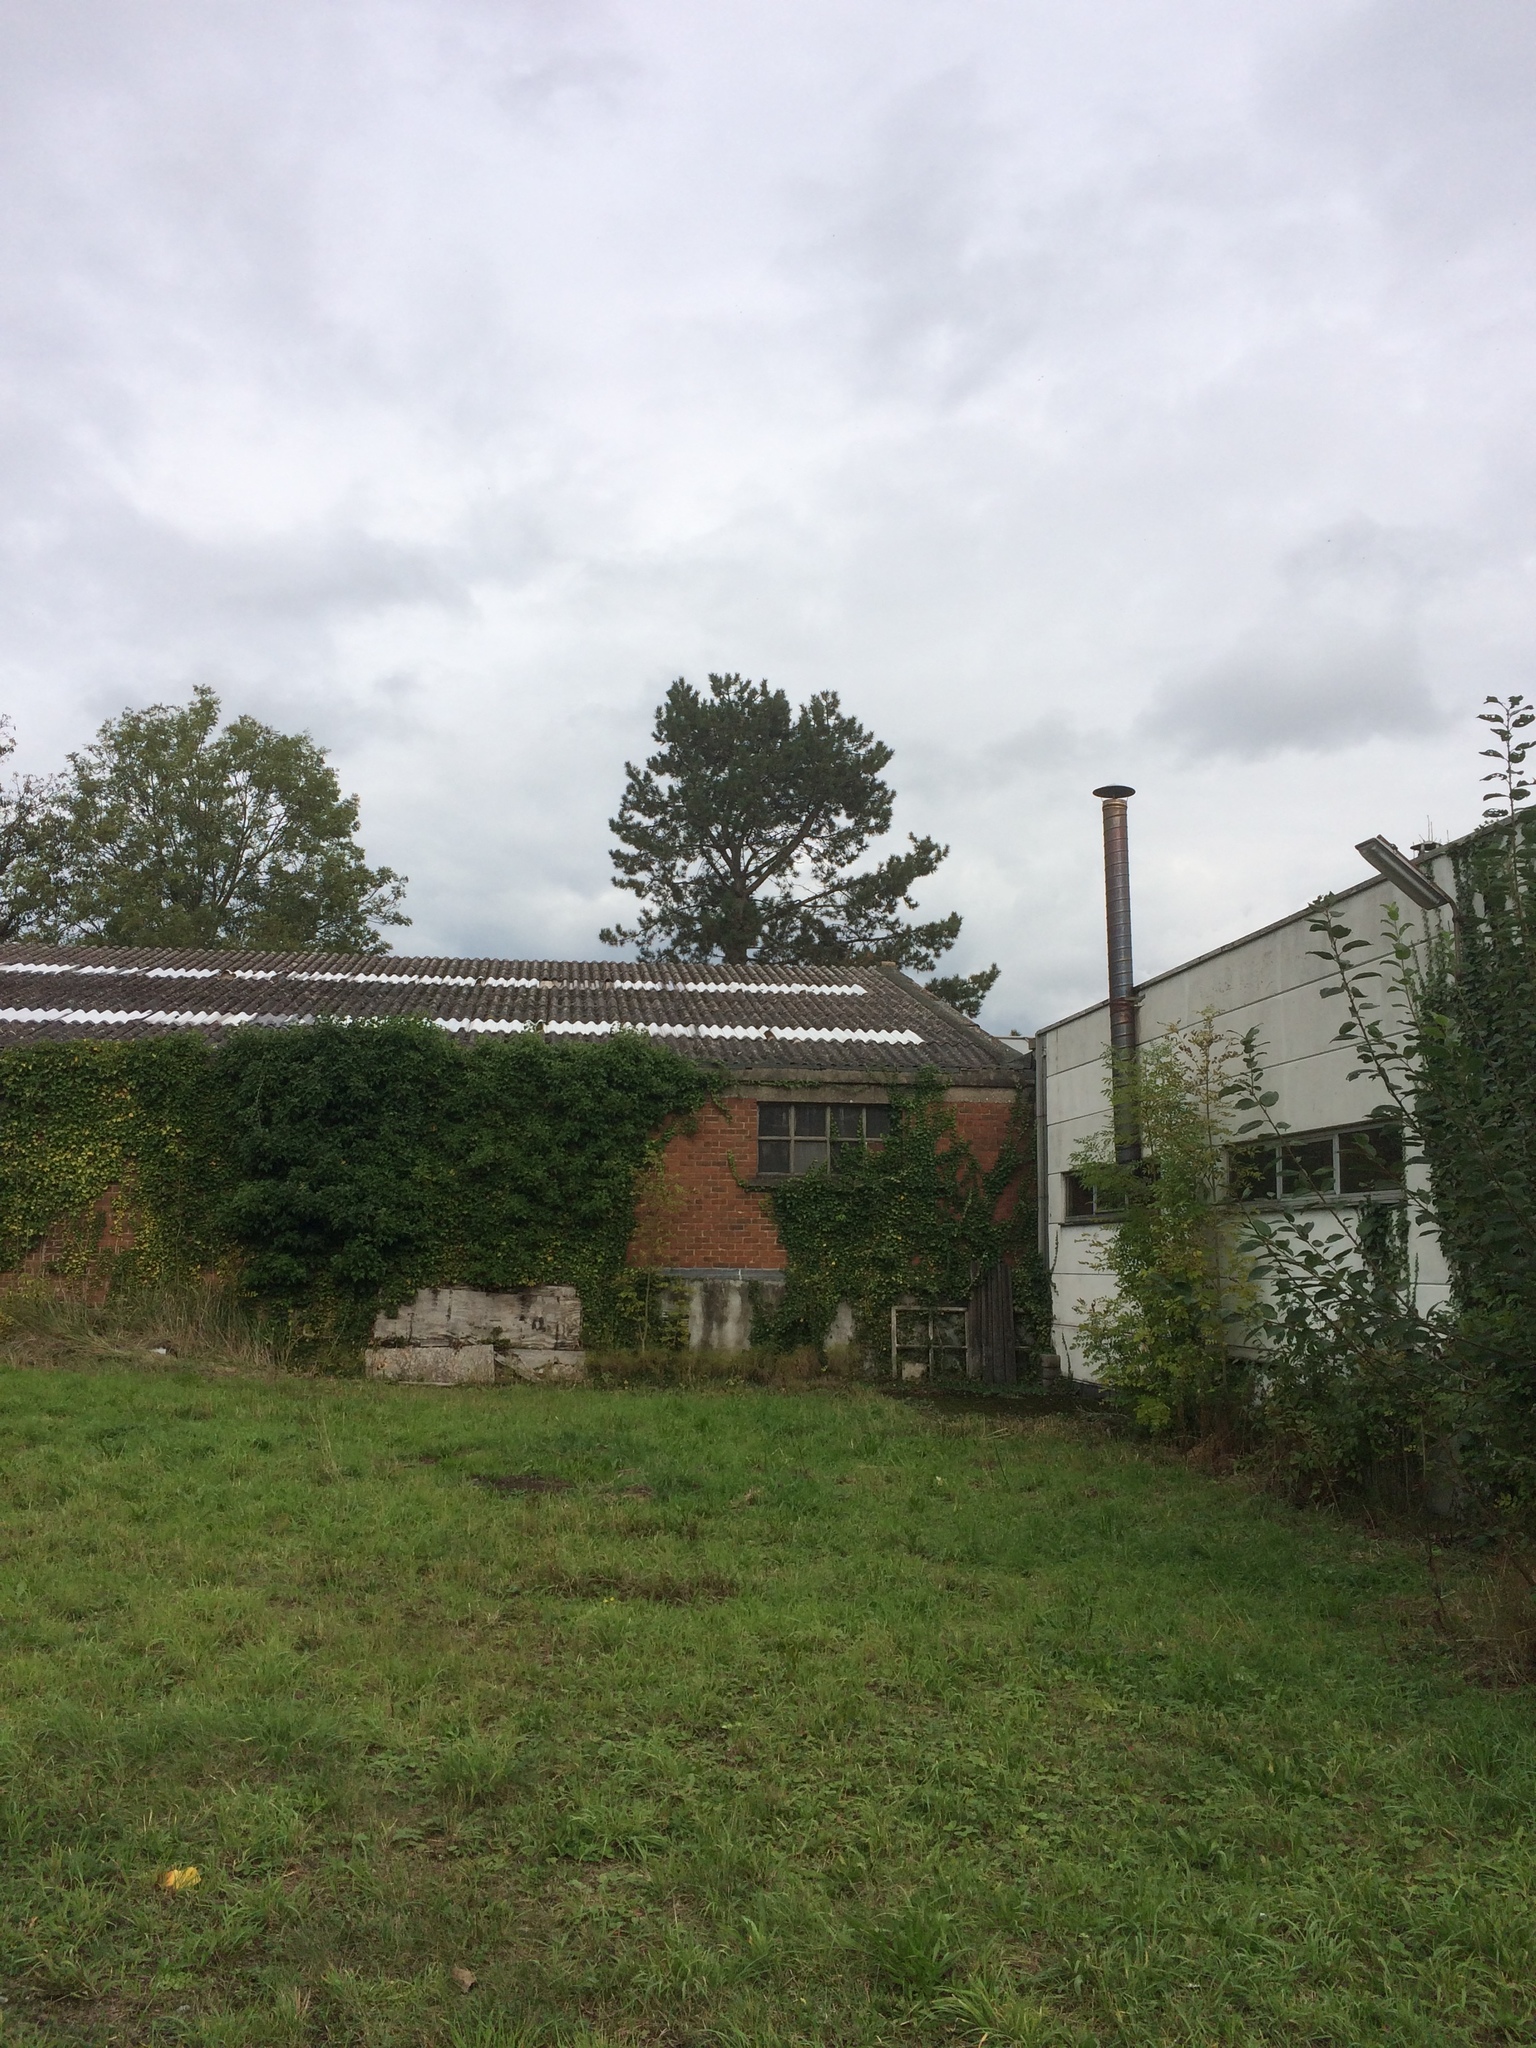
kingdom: Animalia
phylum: Arthropoda
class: Insecta
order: Hymenoptera
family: Vespidae
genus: Vespa
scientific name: Vespa velutina
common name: Asian hornet
